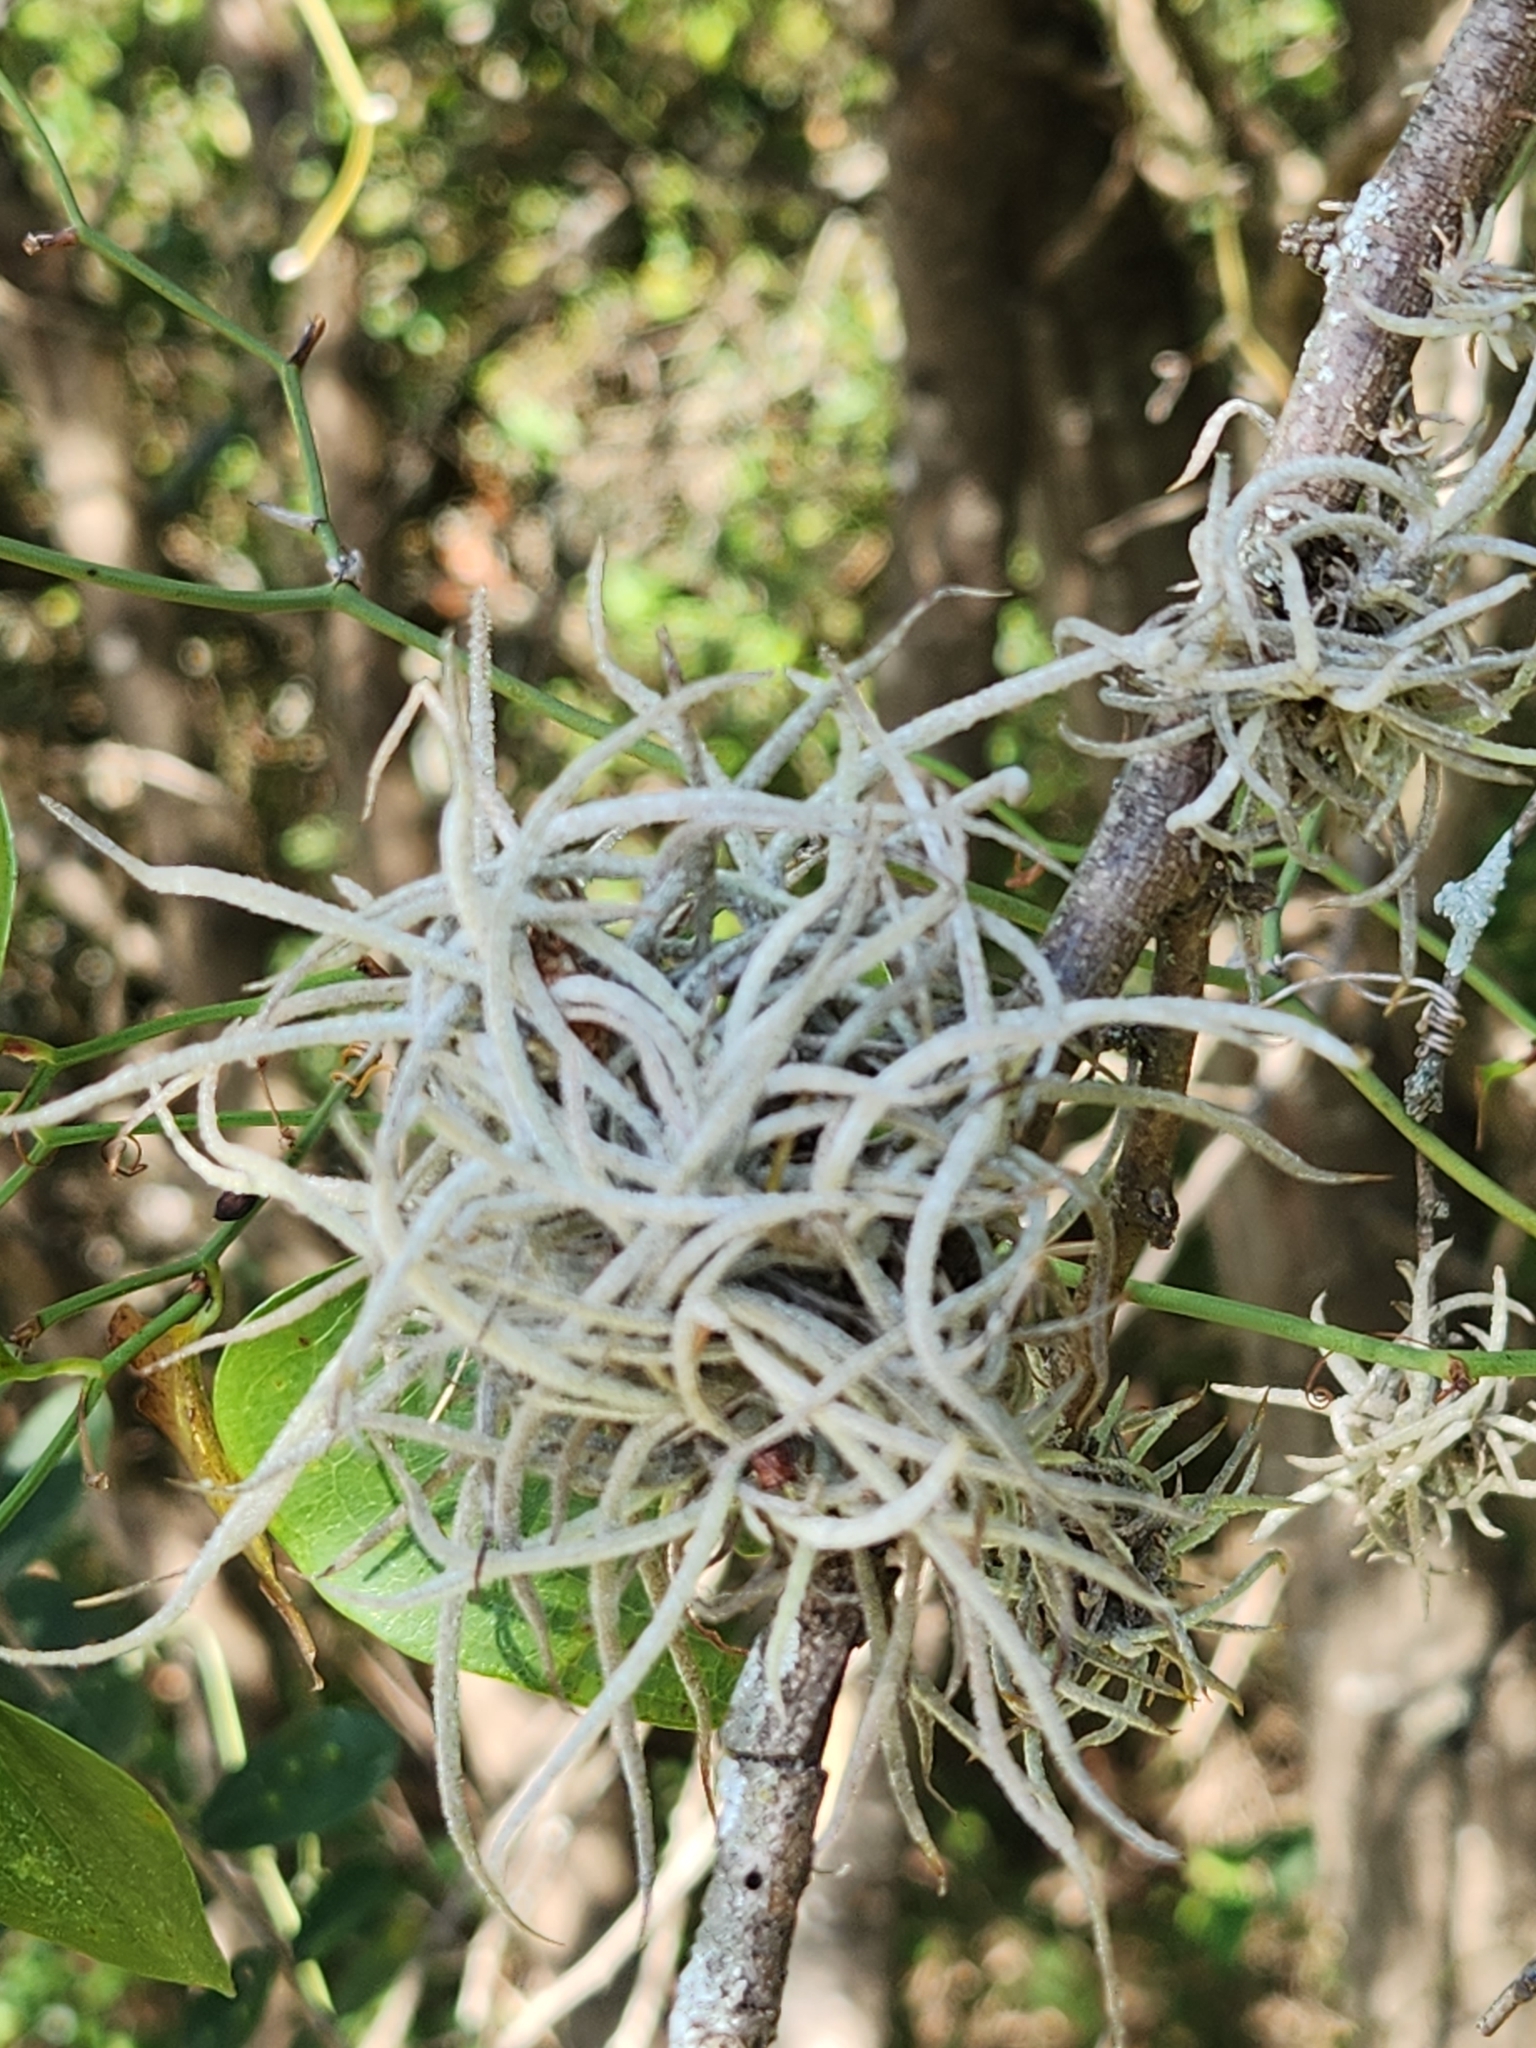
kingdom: Plantae
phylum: Tracheophyta
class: Liliopsida
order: Poales
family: Bromeliaceae
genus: Tillandsia
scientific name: Tillandsia recurvata
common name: Small ballmoss
